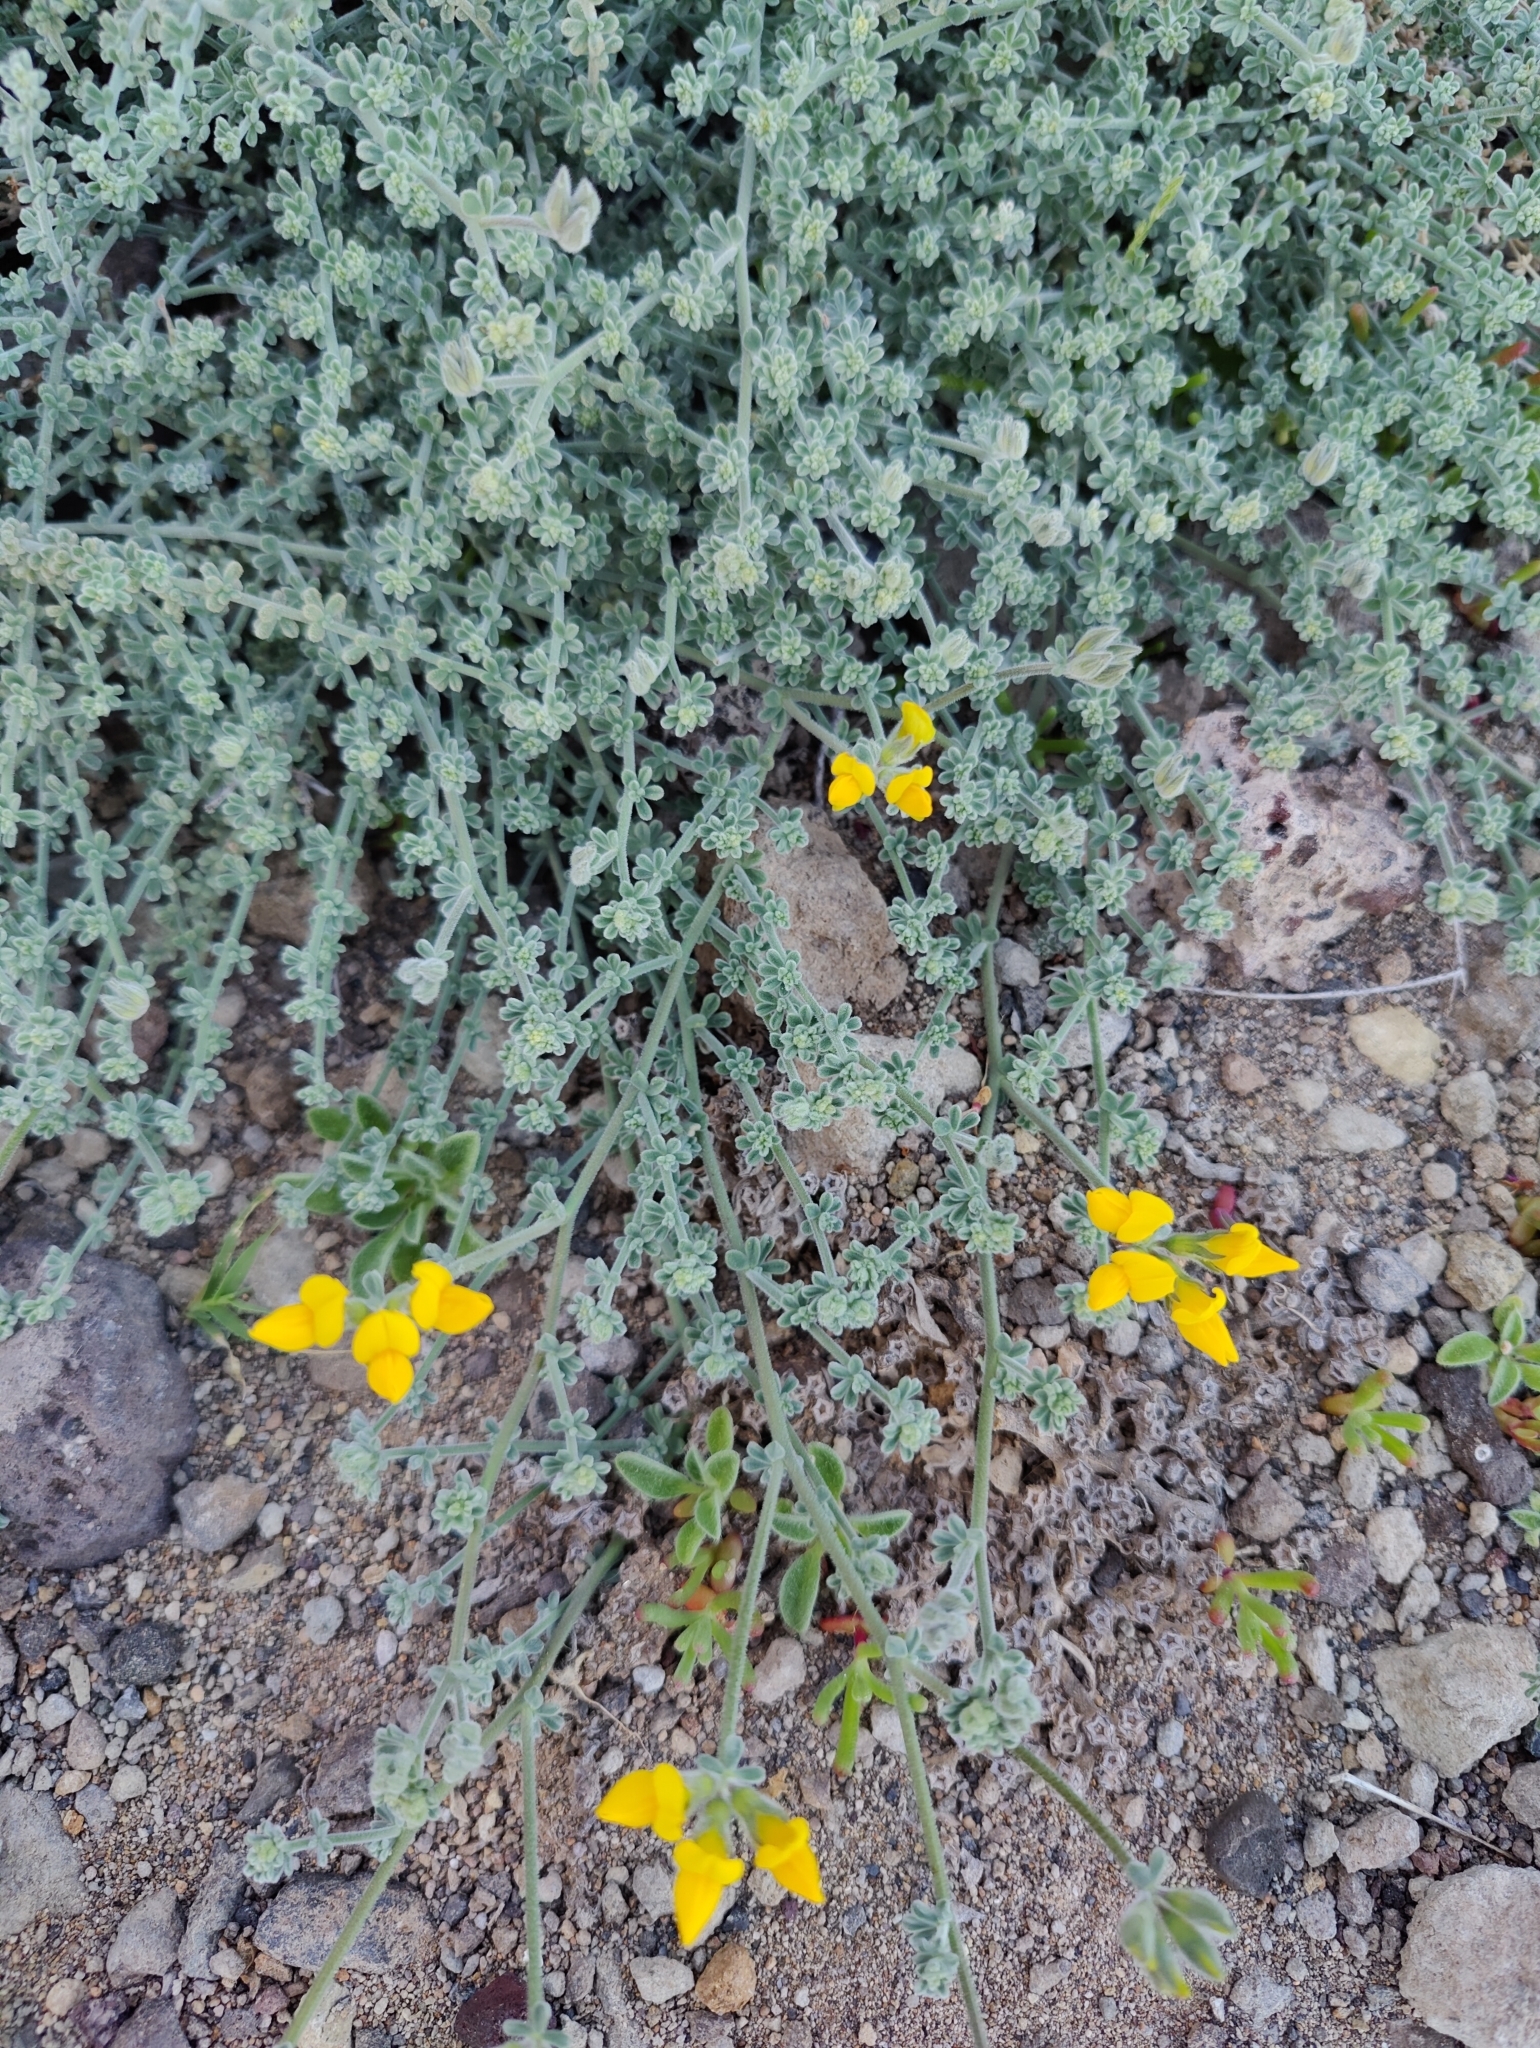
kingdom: Plantae
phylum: Tracheophyta
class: Magnoliopsida
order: Fabales
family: Fabaceae
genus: Lotus
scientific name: Lotus sessilifolius
